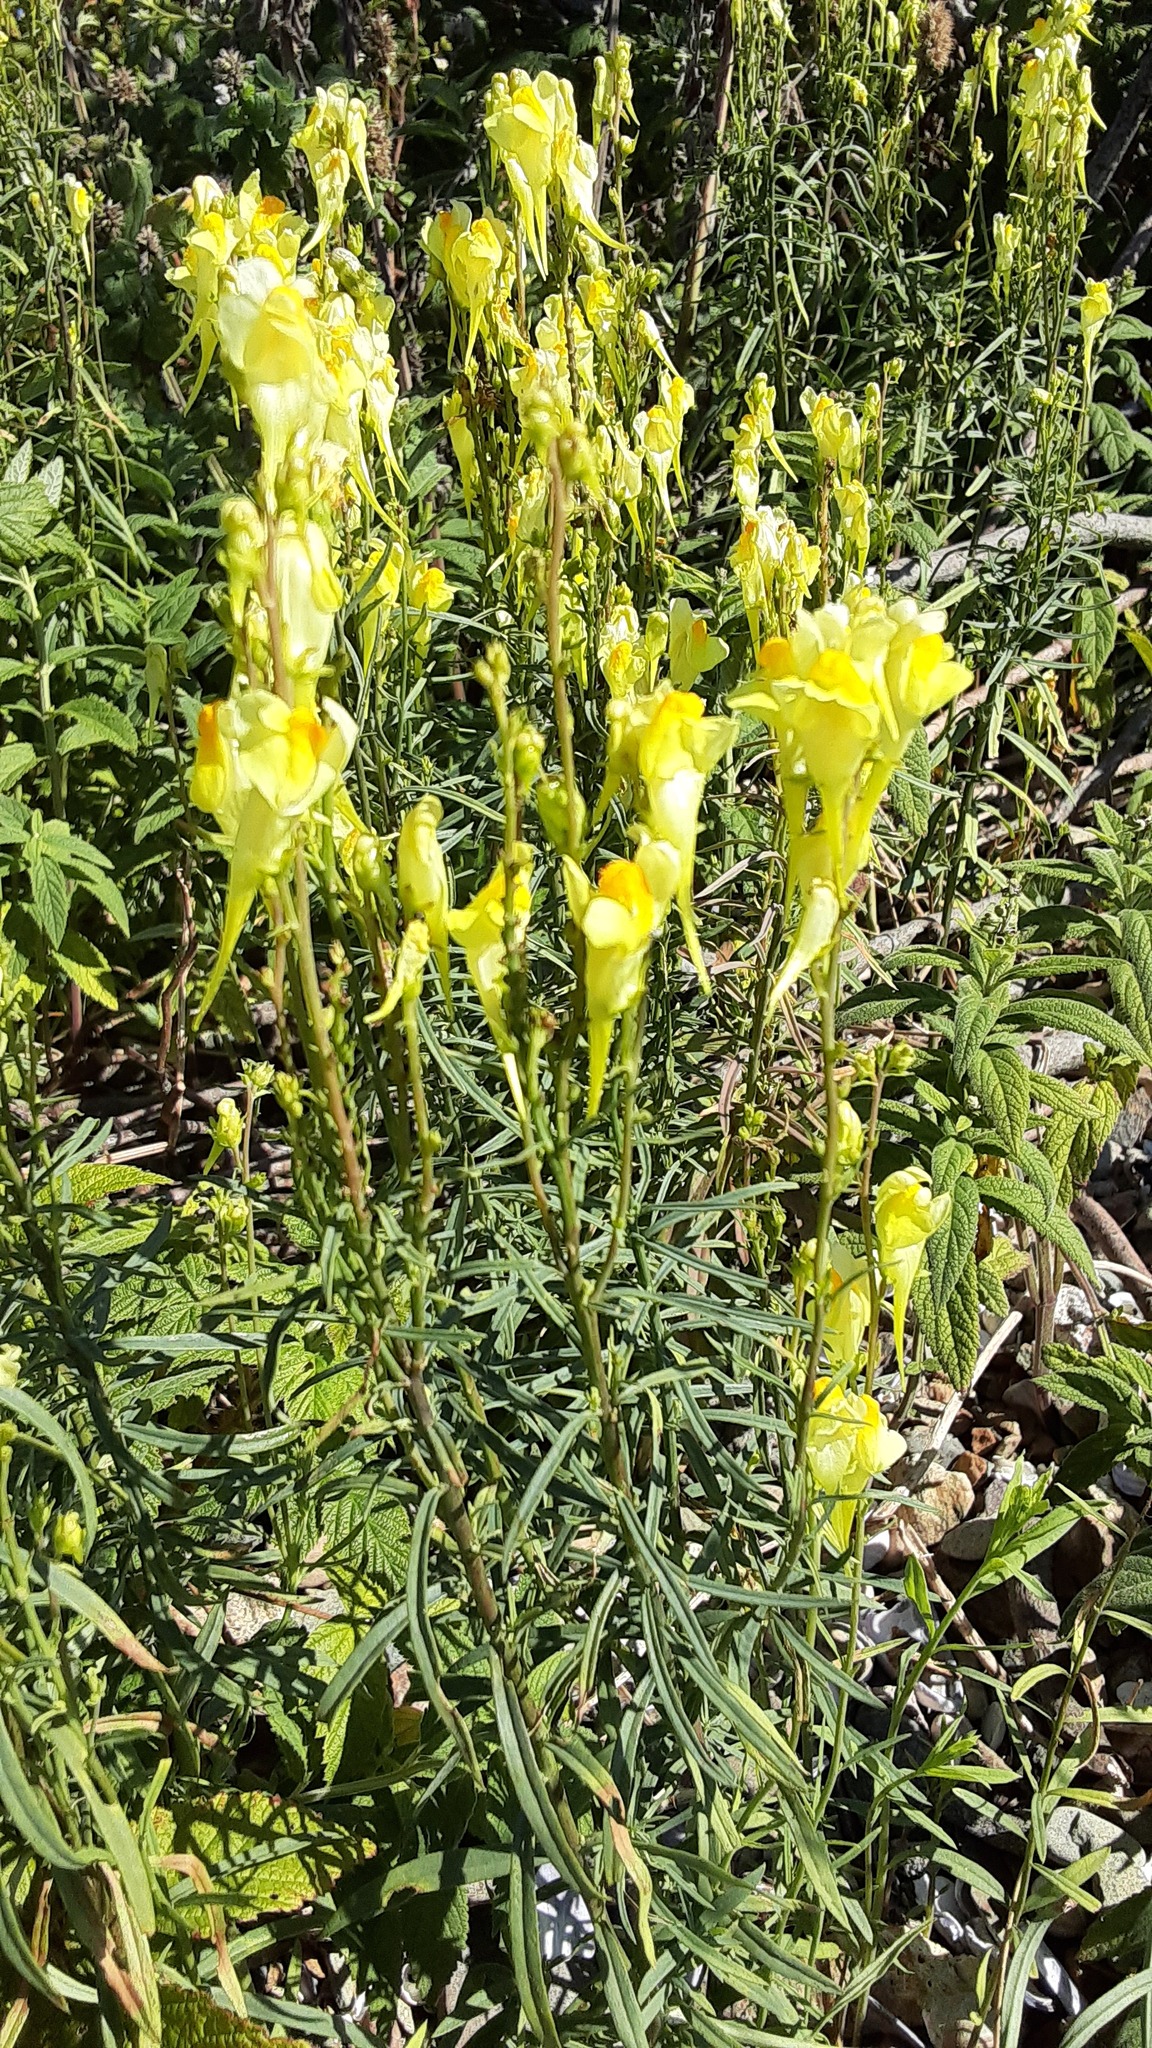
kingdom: Plantae
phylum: Tracheophyta
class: Magnoliopsida
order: Lamiales
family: Plantaginaceae
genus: Linaria
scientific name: Linaria vulgaris
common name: Butter and eggs
